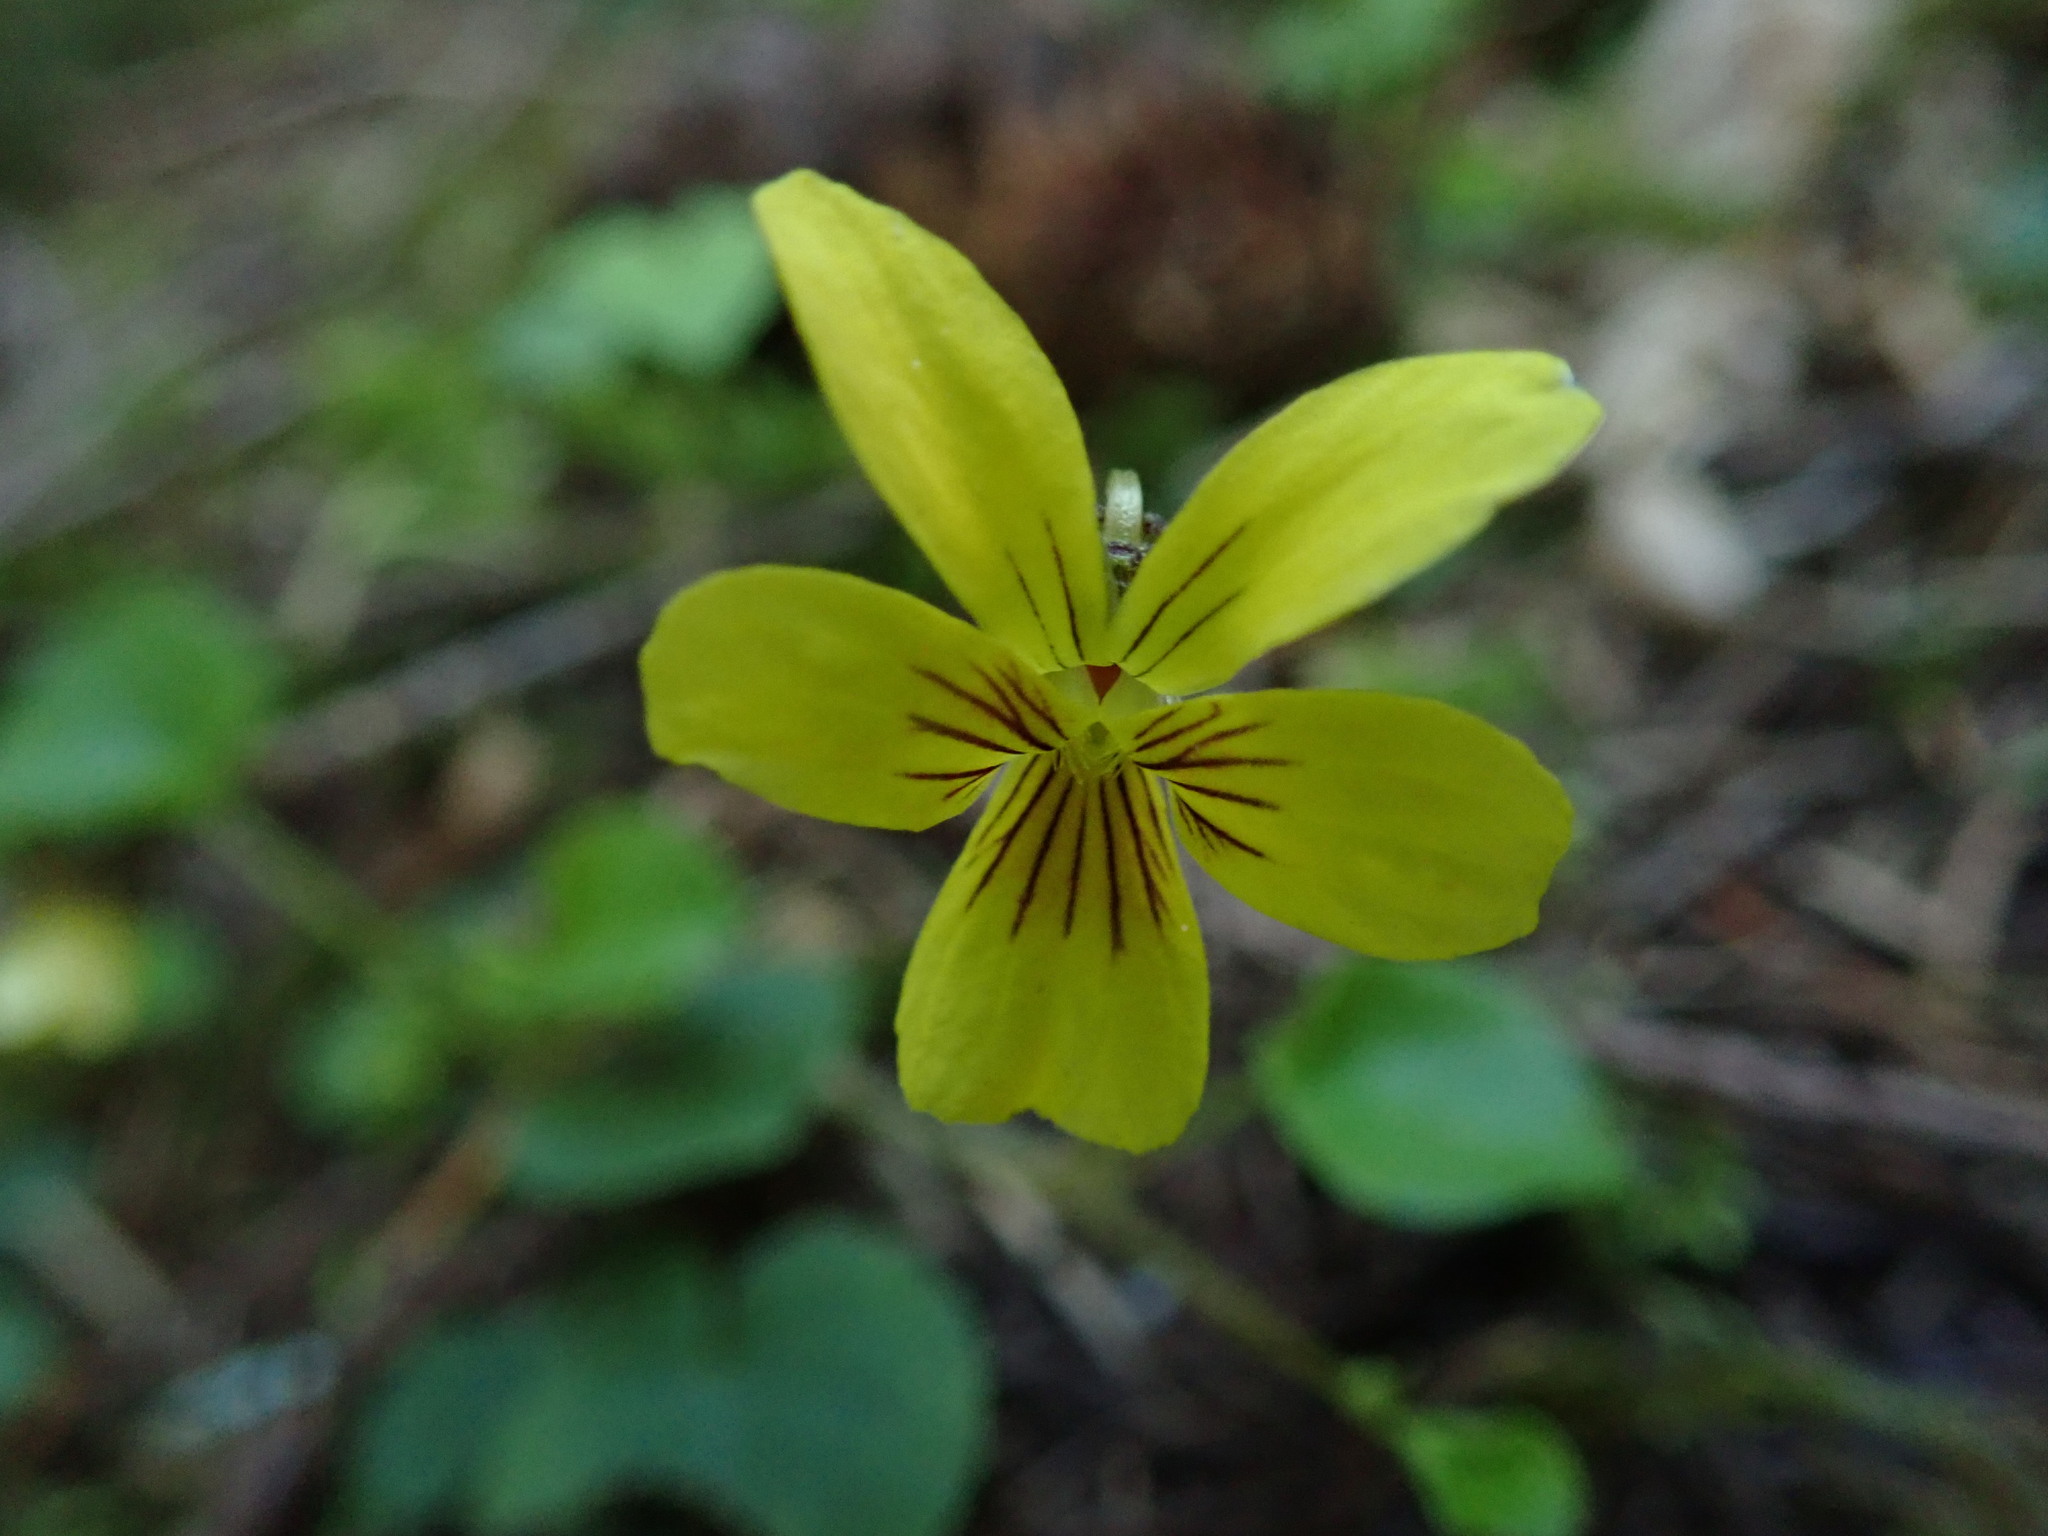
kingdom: Plantae
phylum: Tracheophyta
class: Magnoliopsida
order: Malpighiales
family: Violaceae
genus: Viola
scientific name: Viola sempervirens
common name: Evergreen violet
